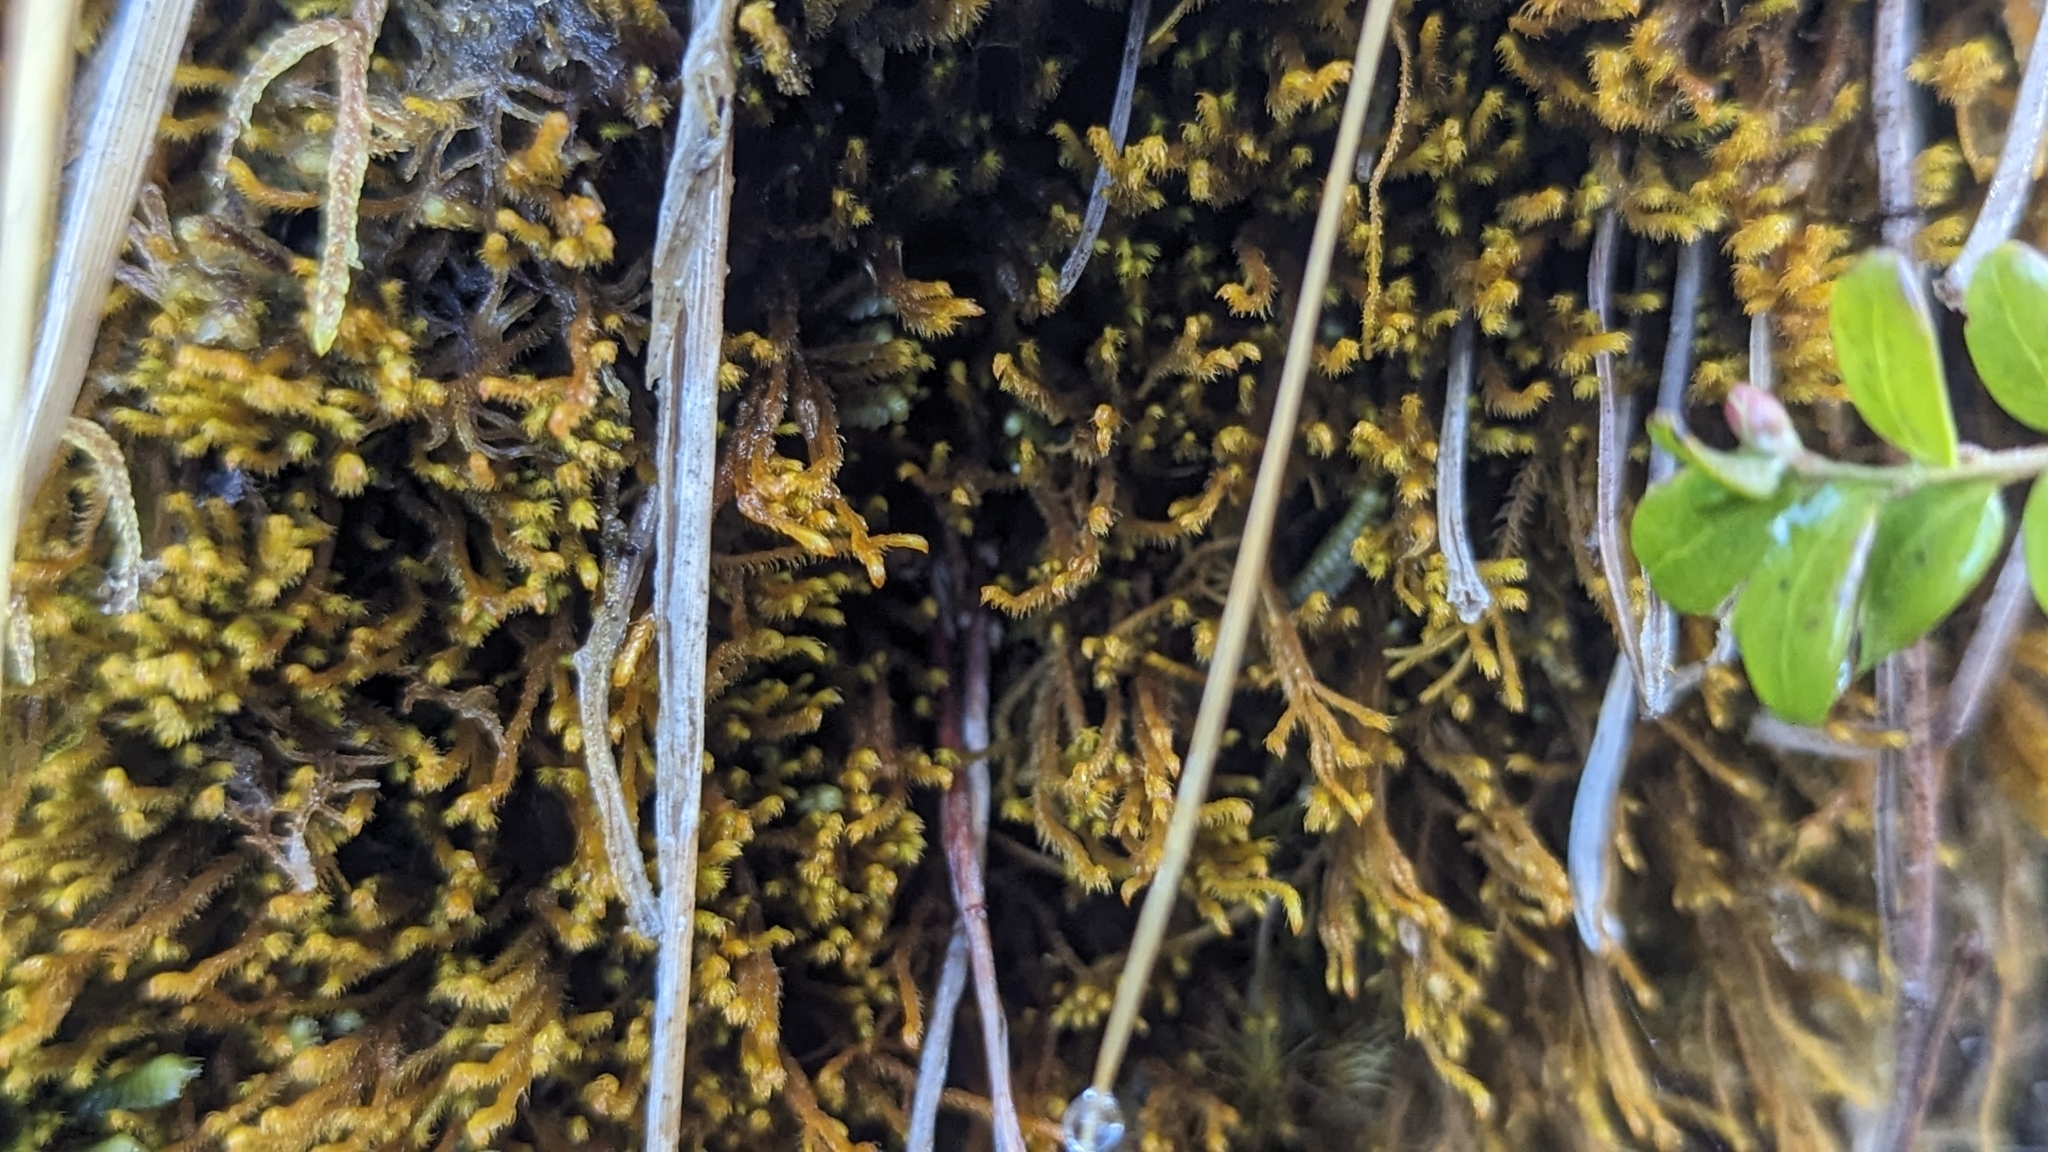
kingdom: Plantae
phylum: Marchantiophyta
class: Jungermanniopsida
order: Jungermanniales
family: Herbertaceae
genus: Herbertus
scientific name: Herbertus aduncus
